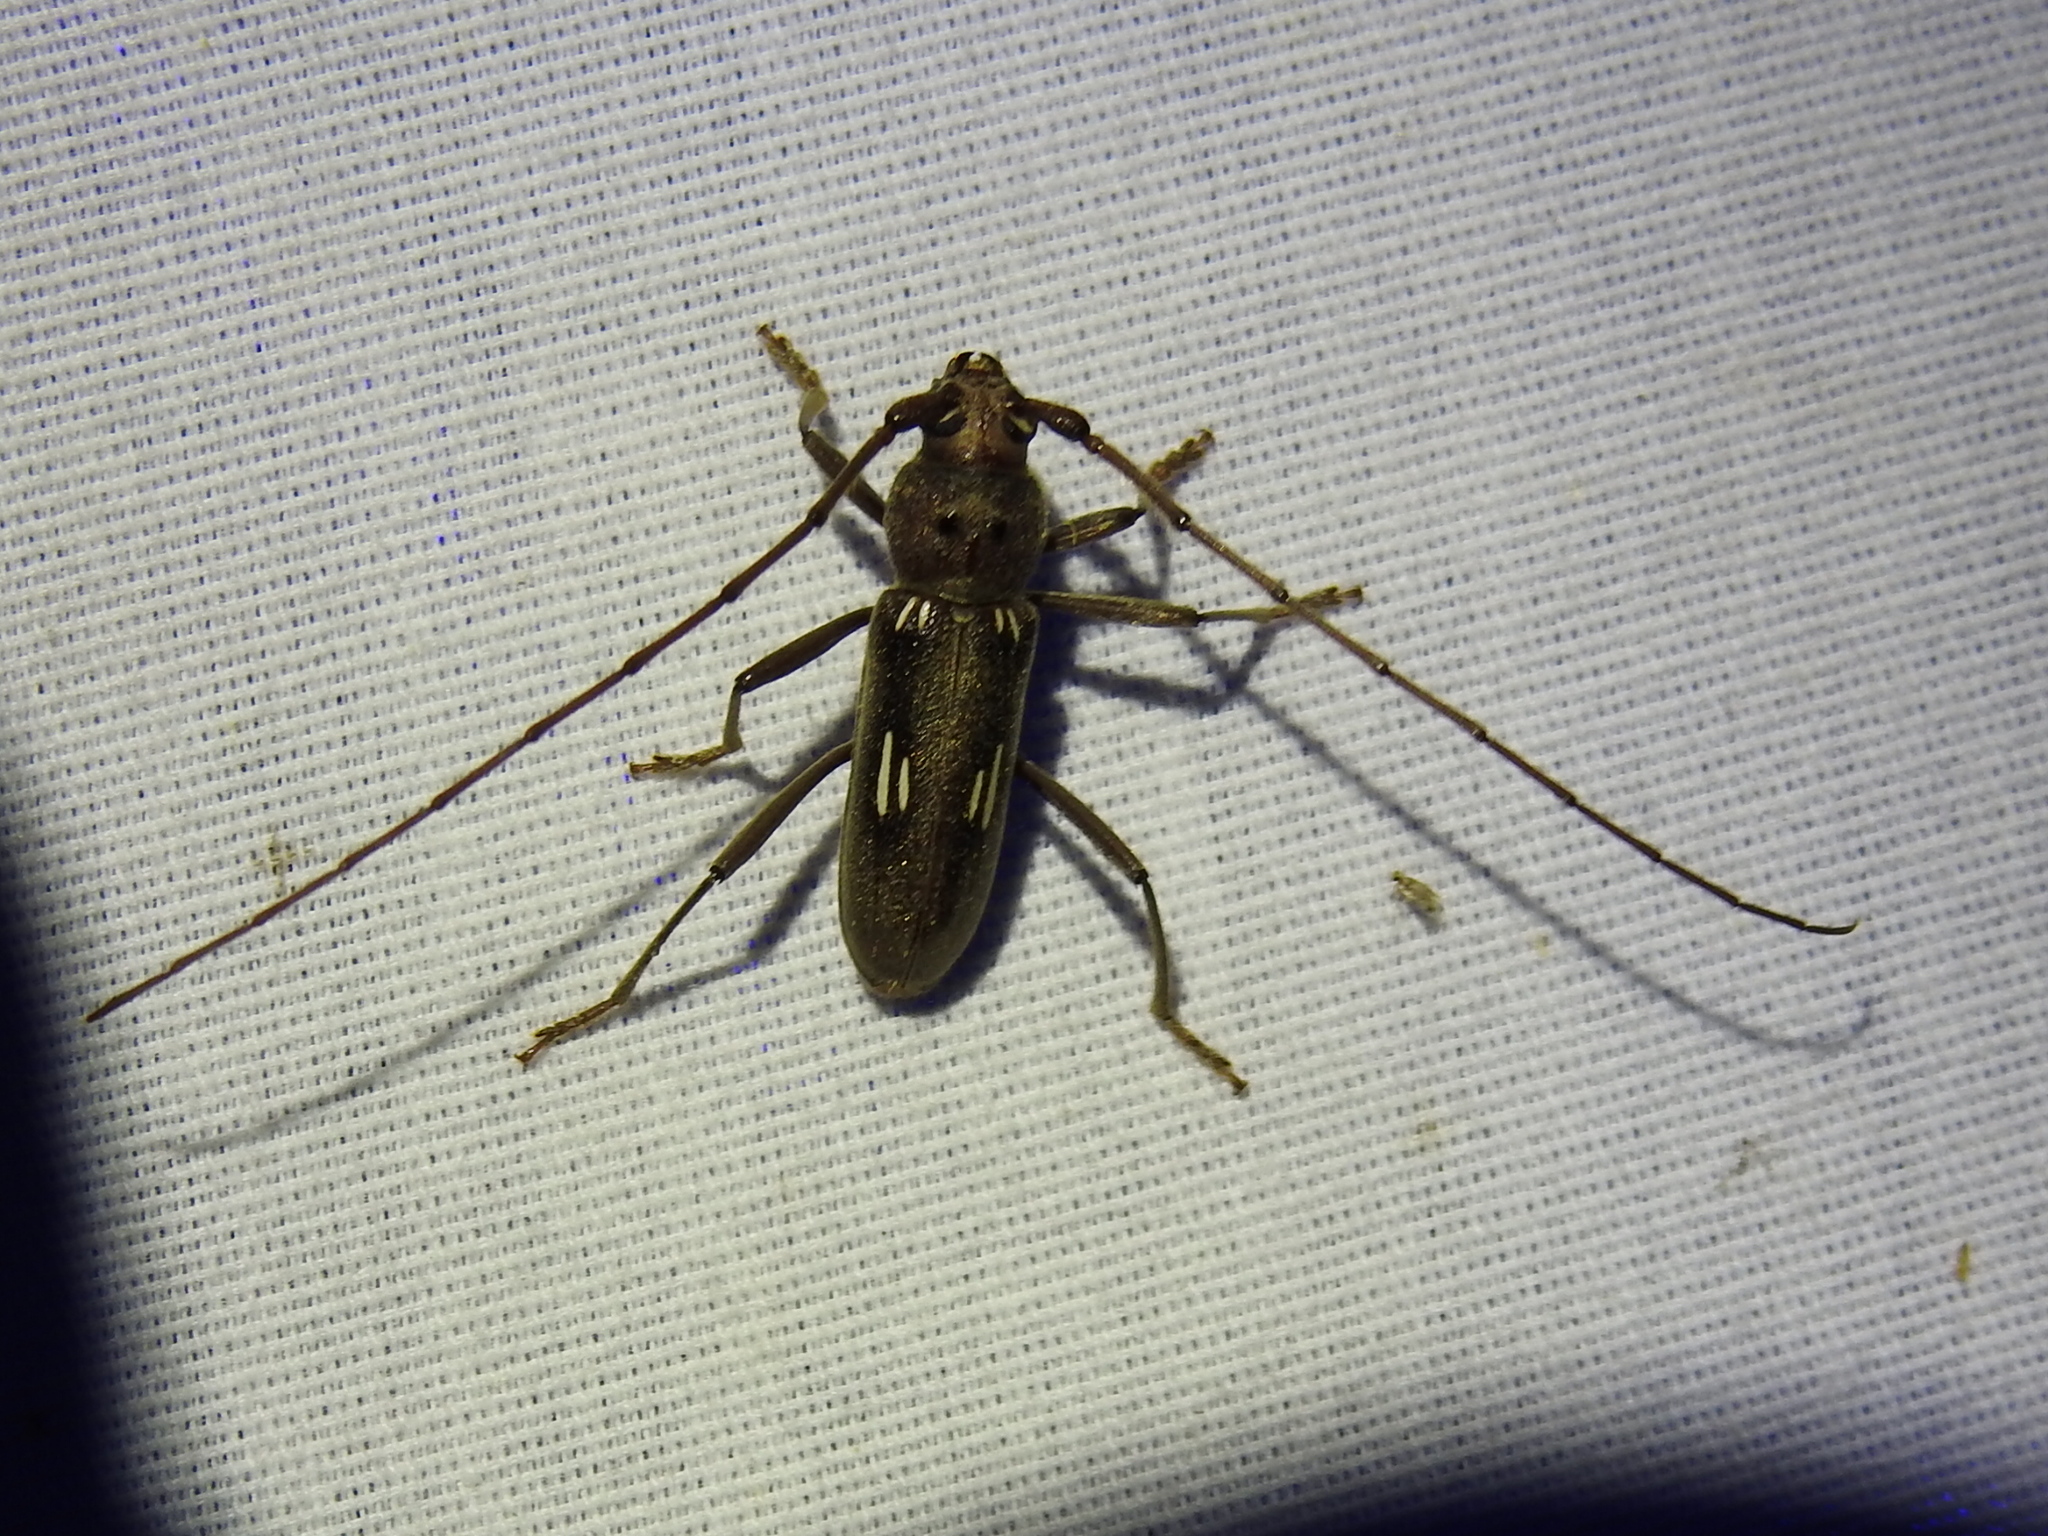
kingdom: Animalia
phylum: Arthropoda
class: Insecta
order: Coleoptera
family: Cerambycidae
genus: Eburia
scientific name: Eburia ovicollis
